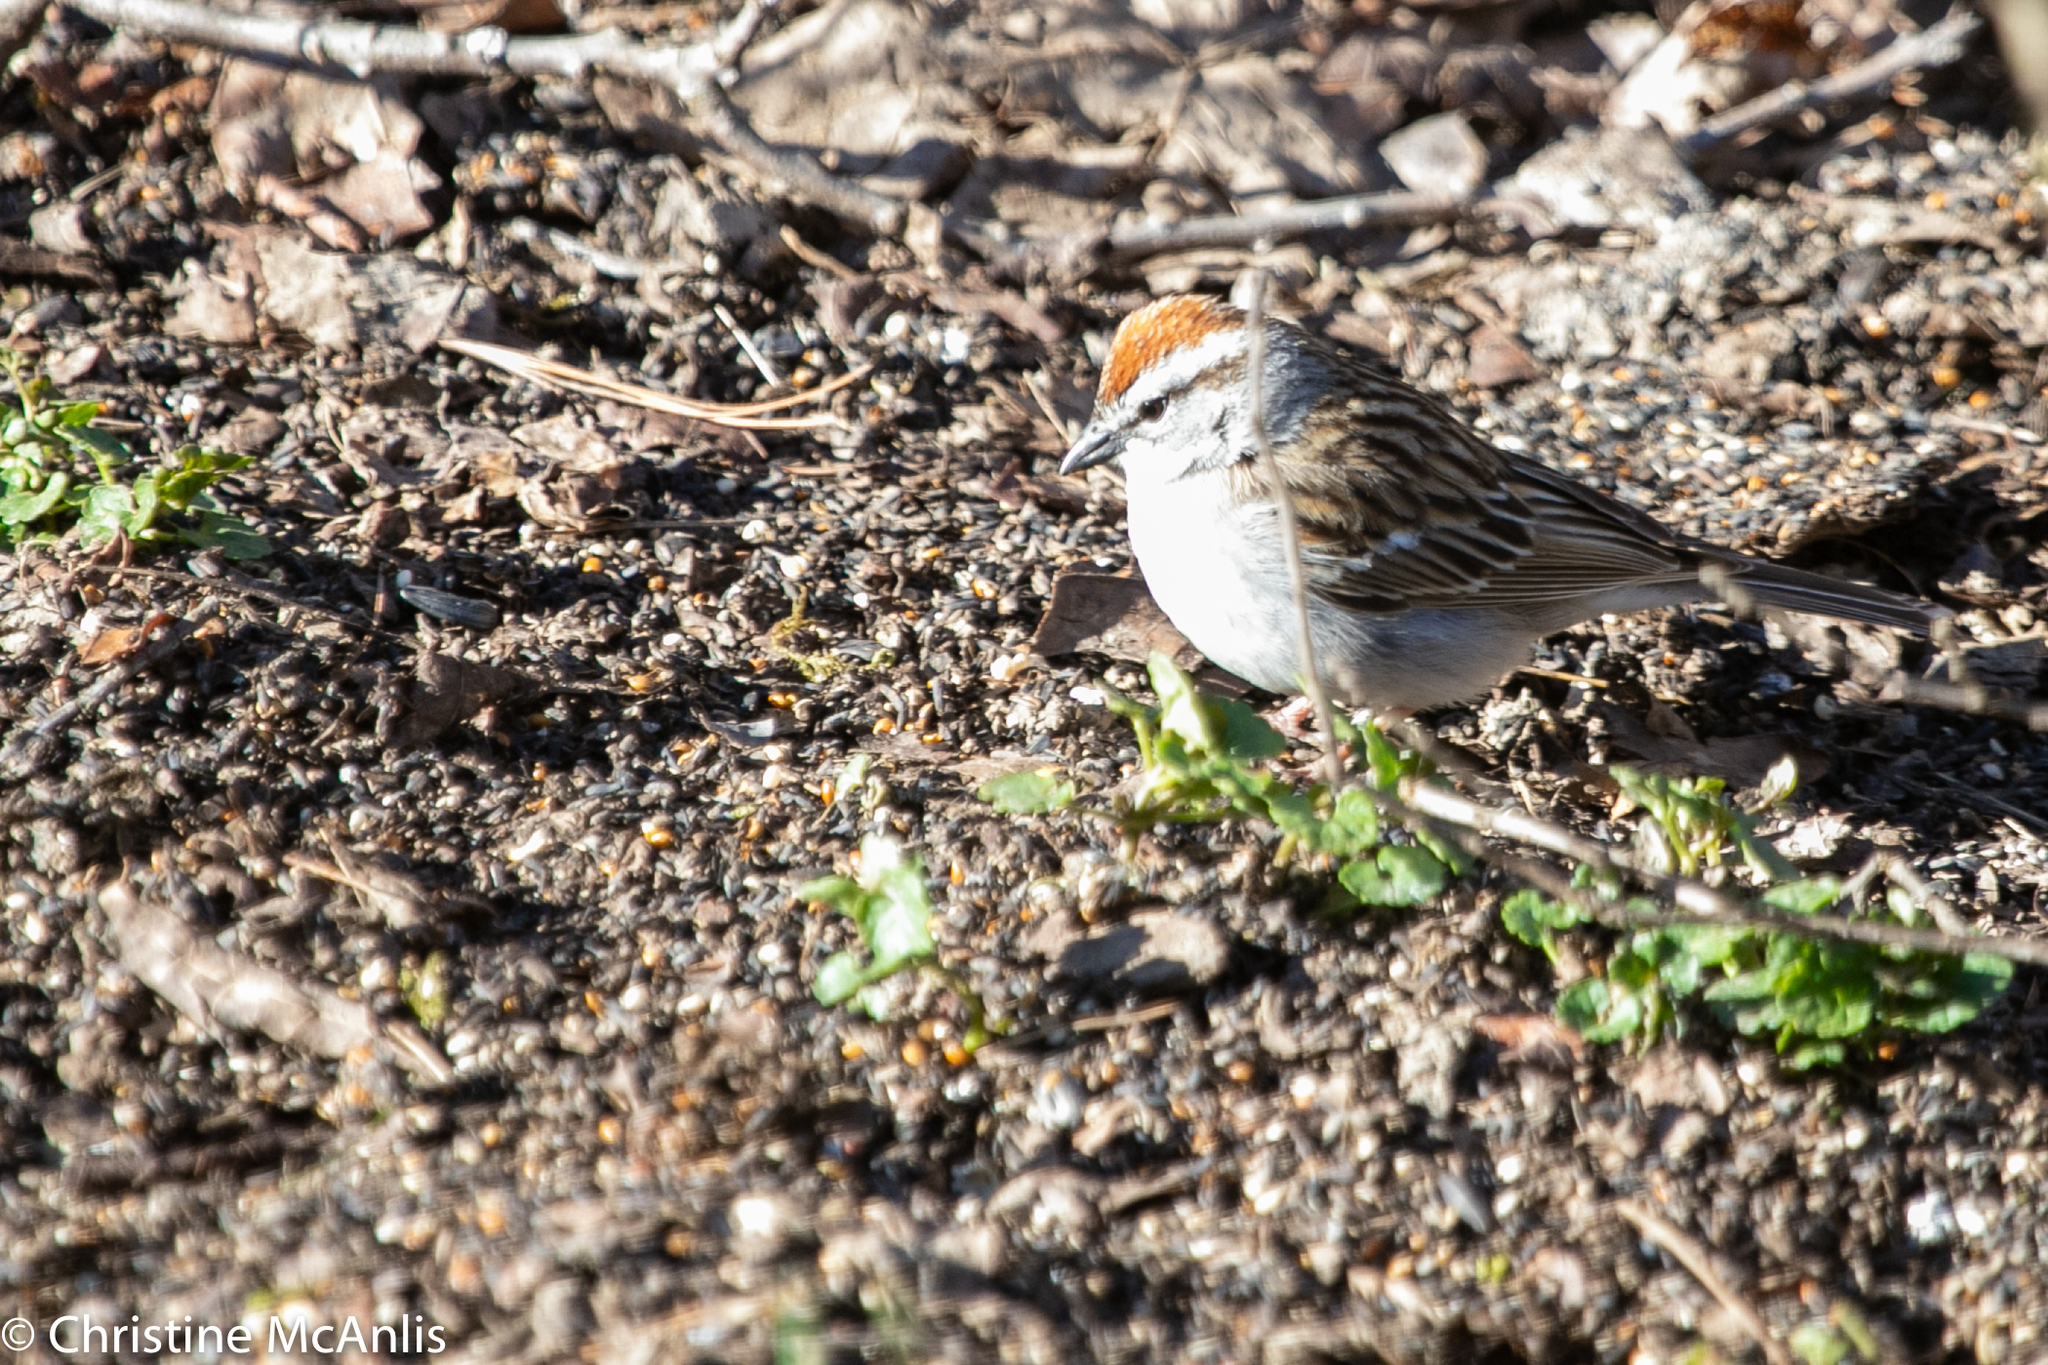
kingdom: Animalia
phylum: Chordata
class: Aves
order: Passeriformes
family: Passerellidae
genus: Spizella
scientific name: Spizella passerina
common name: Chipping sparrow
